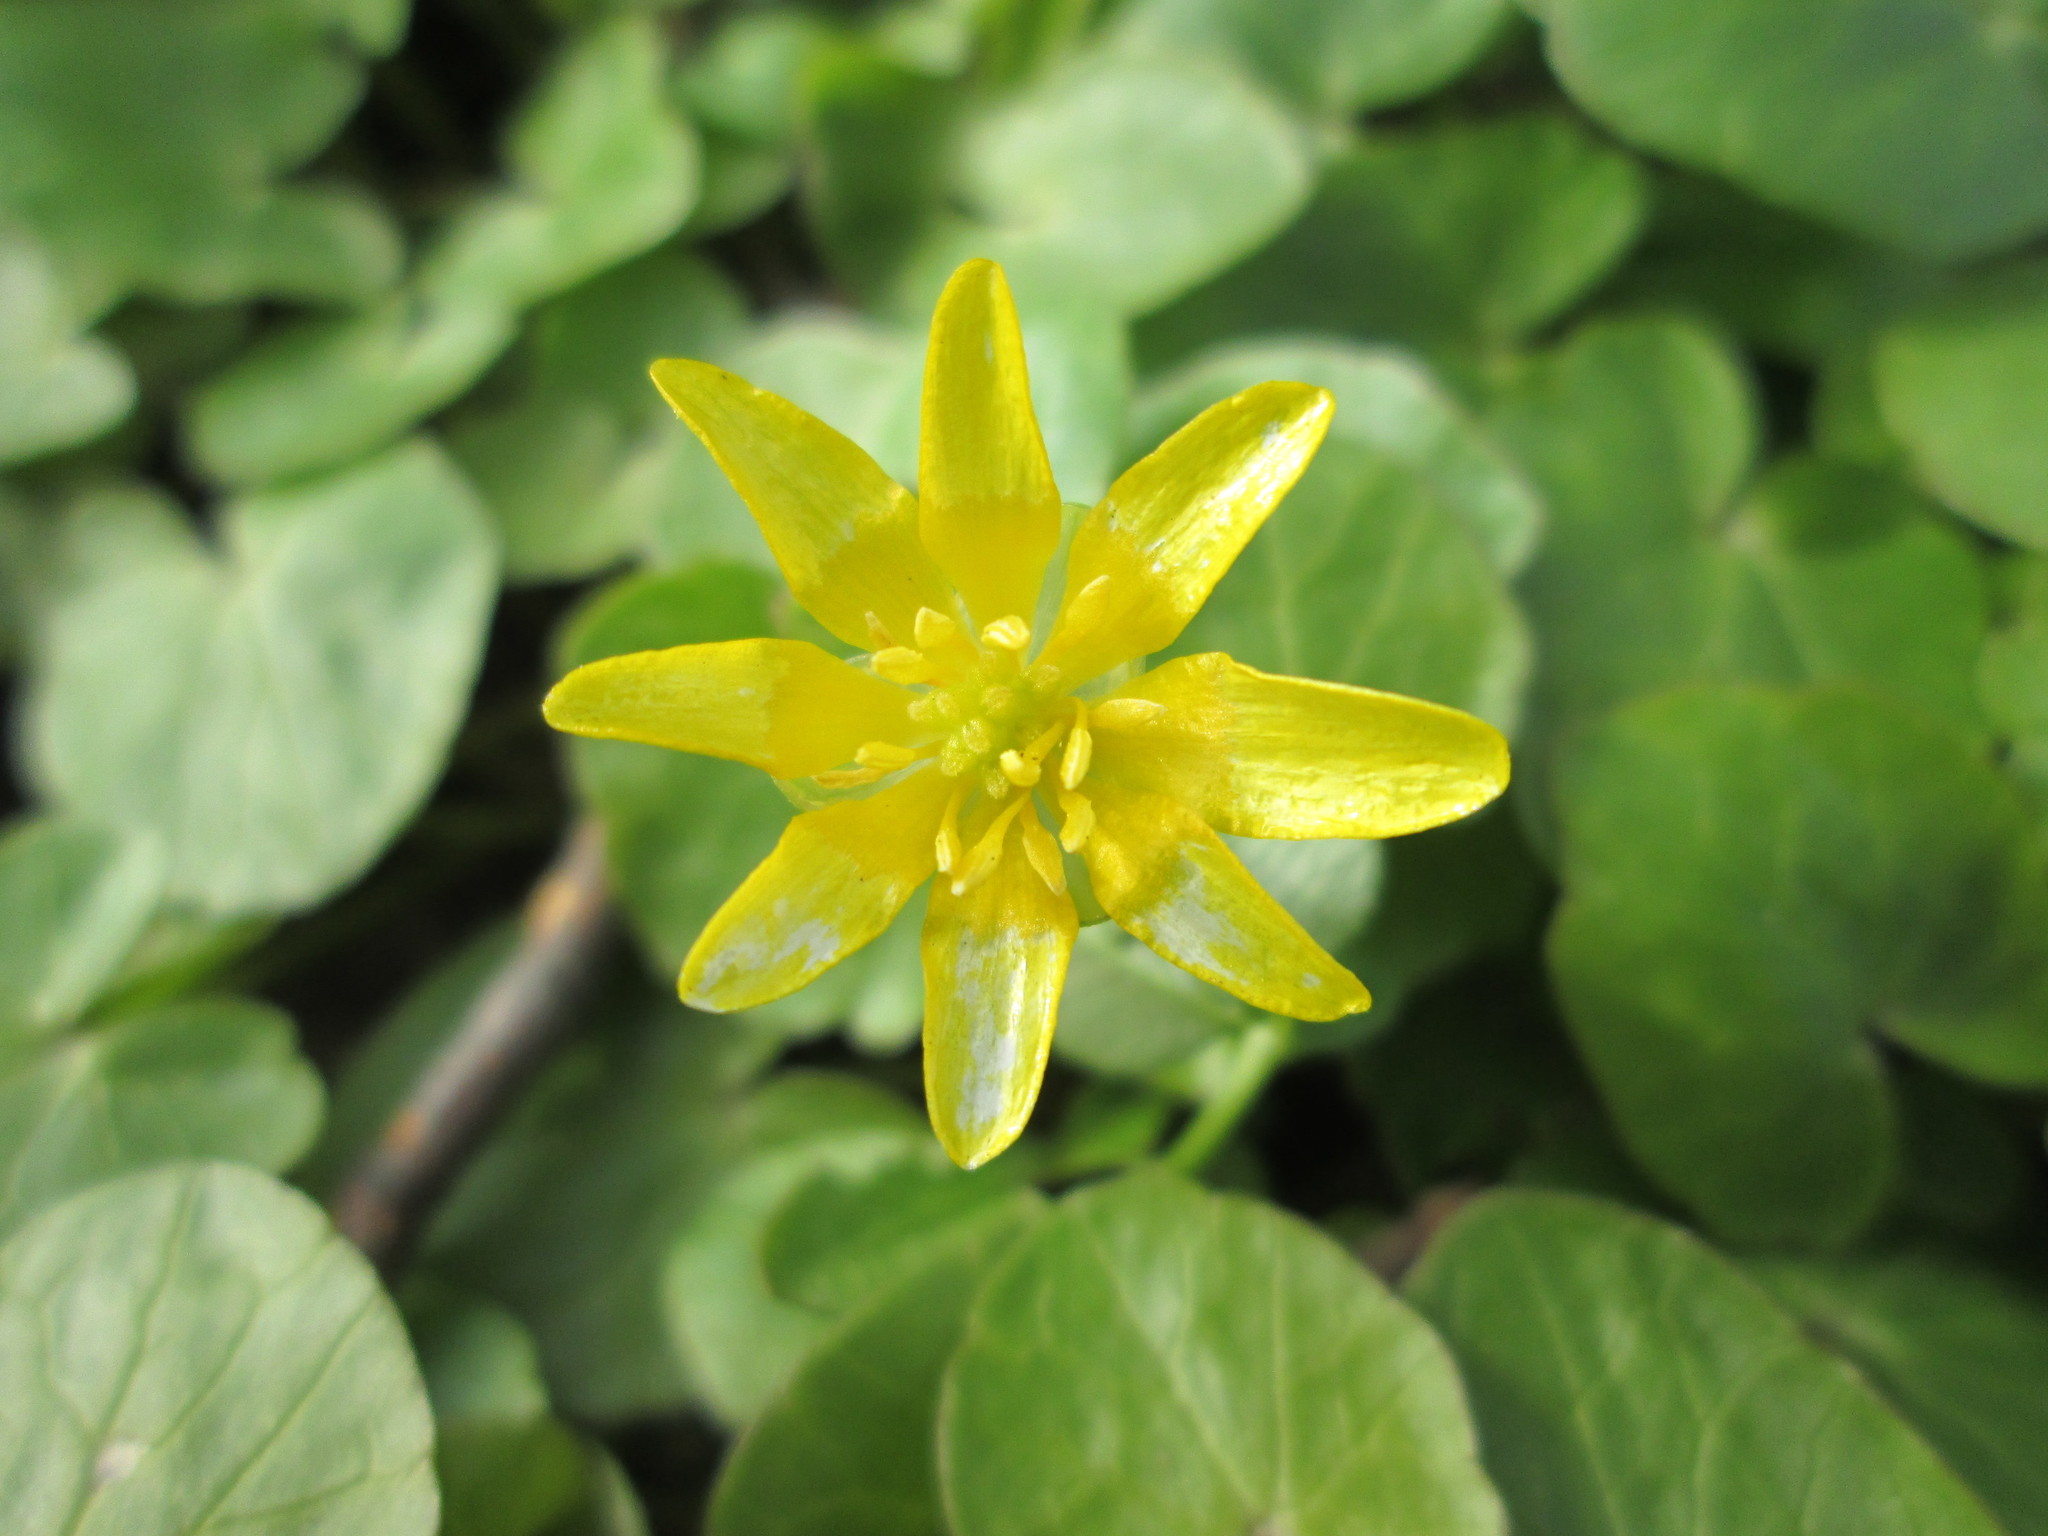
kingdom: Plantae
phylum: Tracheophyta
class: Magnoliopsida
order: Ranunculales
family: Ranunculaceae
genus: Ficaria
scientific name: Ficaria verna
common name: Lesser celandine
